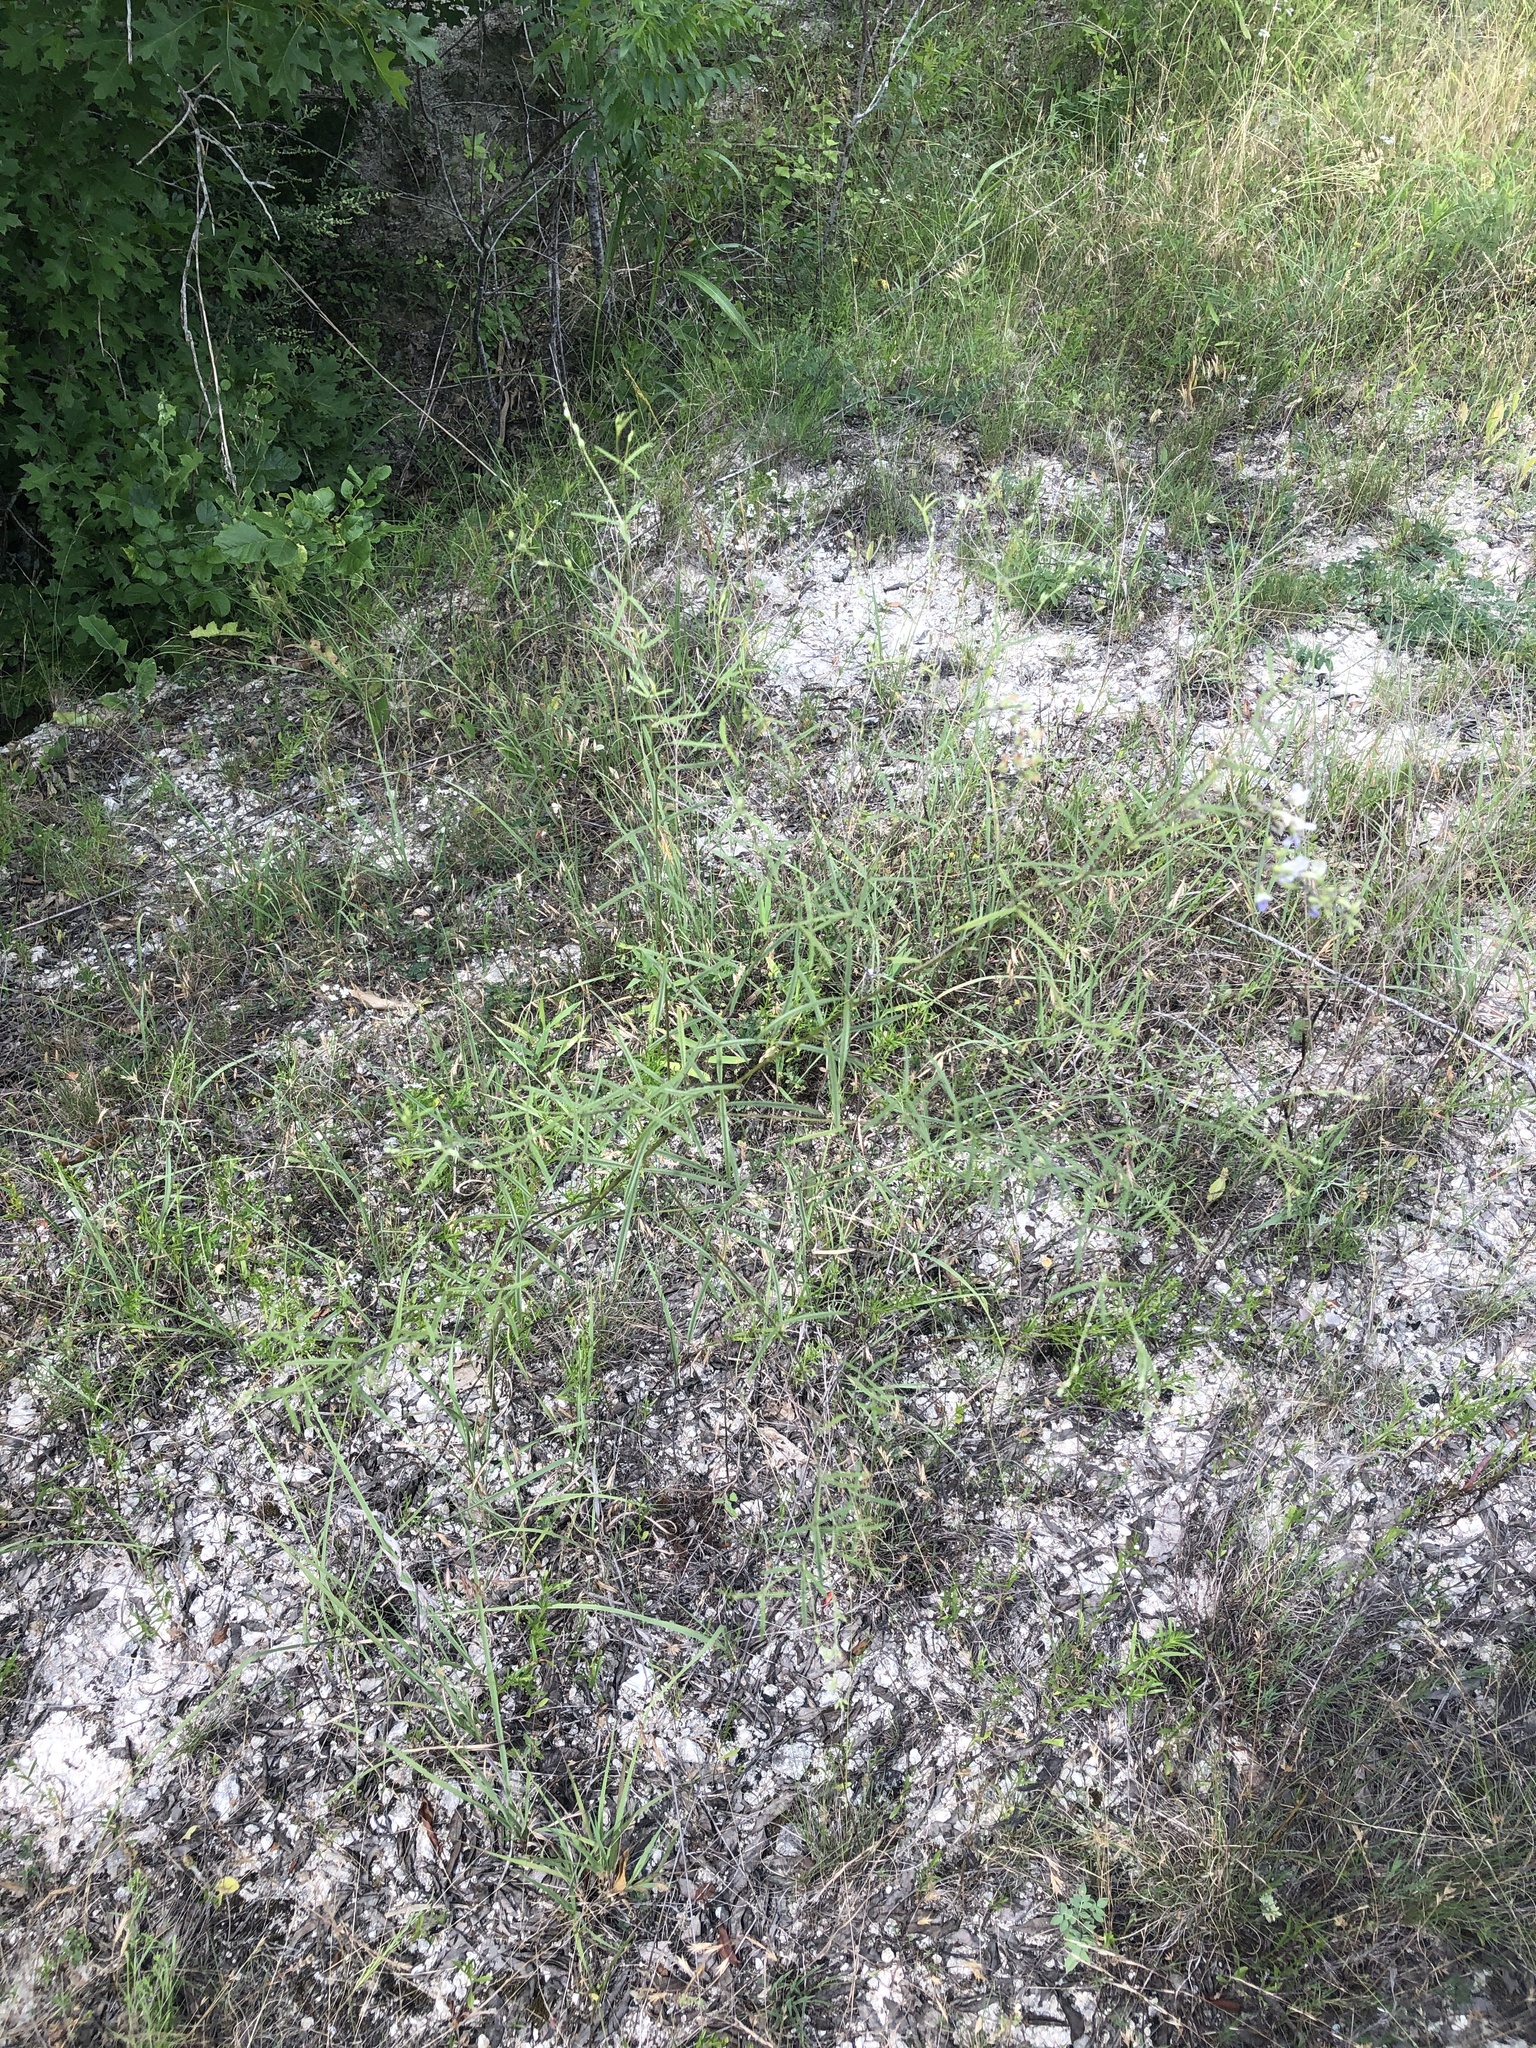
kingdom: Plantae
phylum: Tracheophyta
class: Magnoliopsida
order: Fabales
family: Fabaceae
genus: Pediomelum
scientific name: Pediomelum linearifolium
